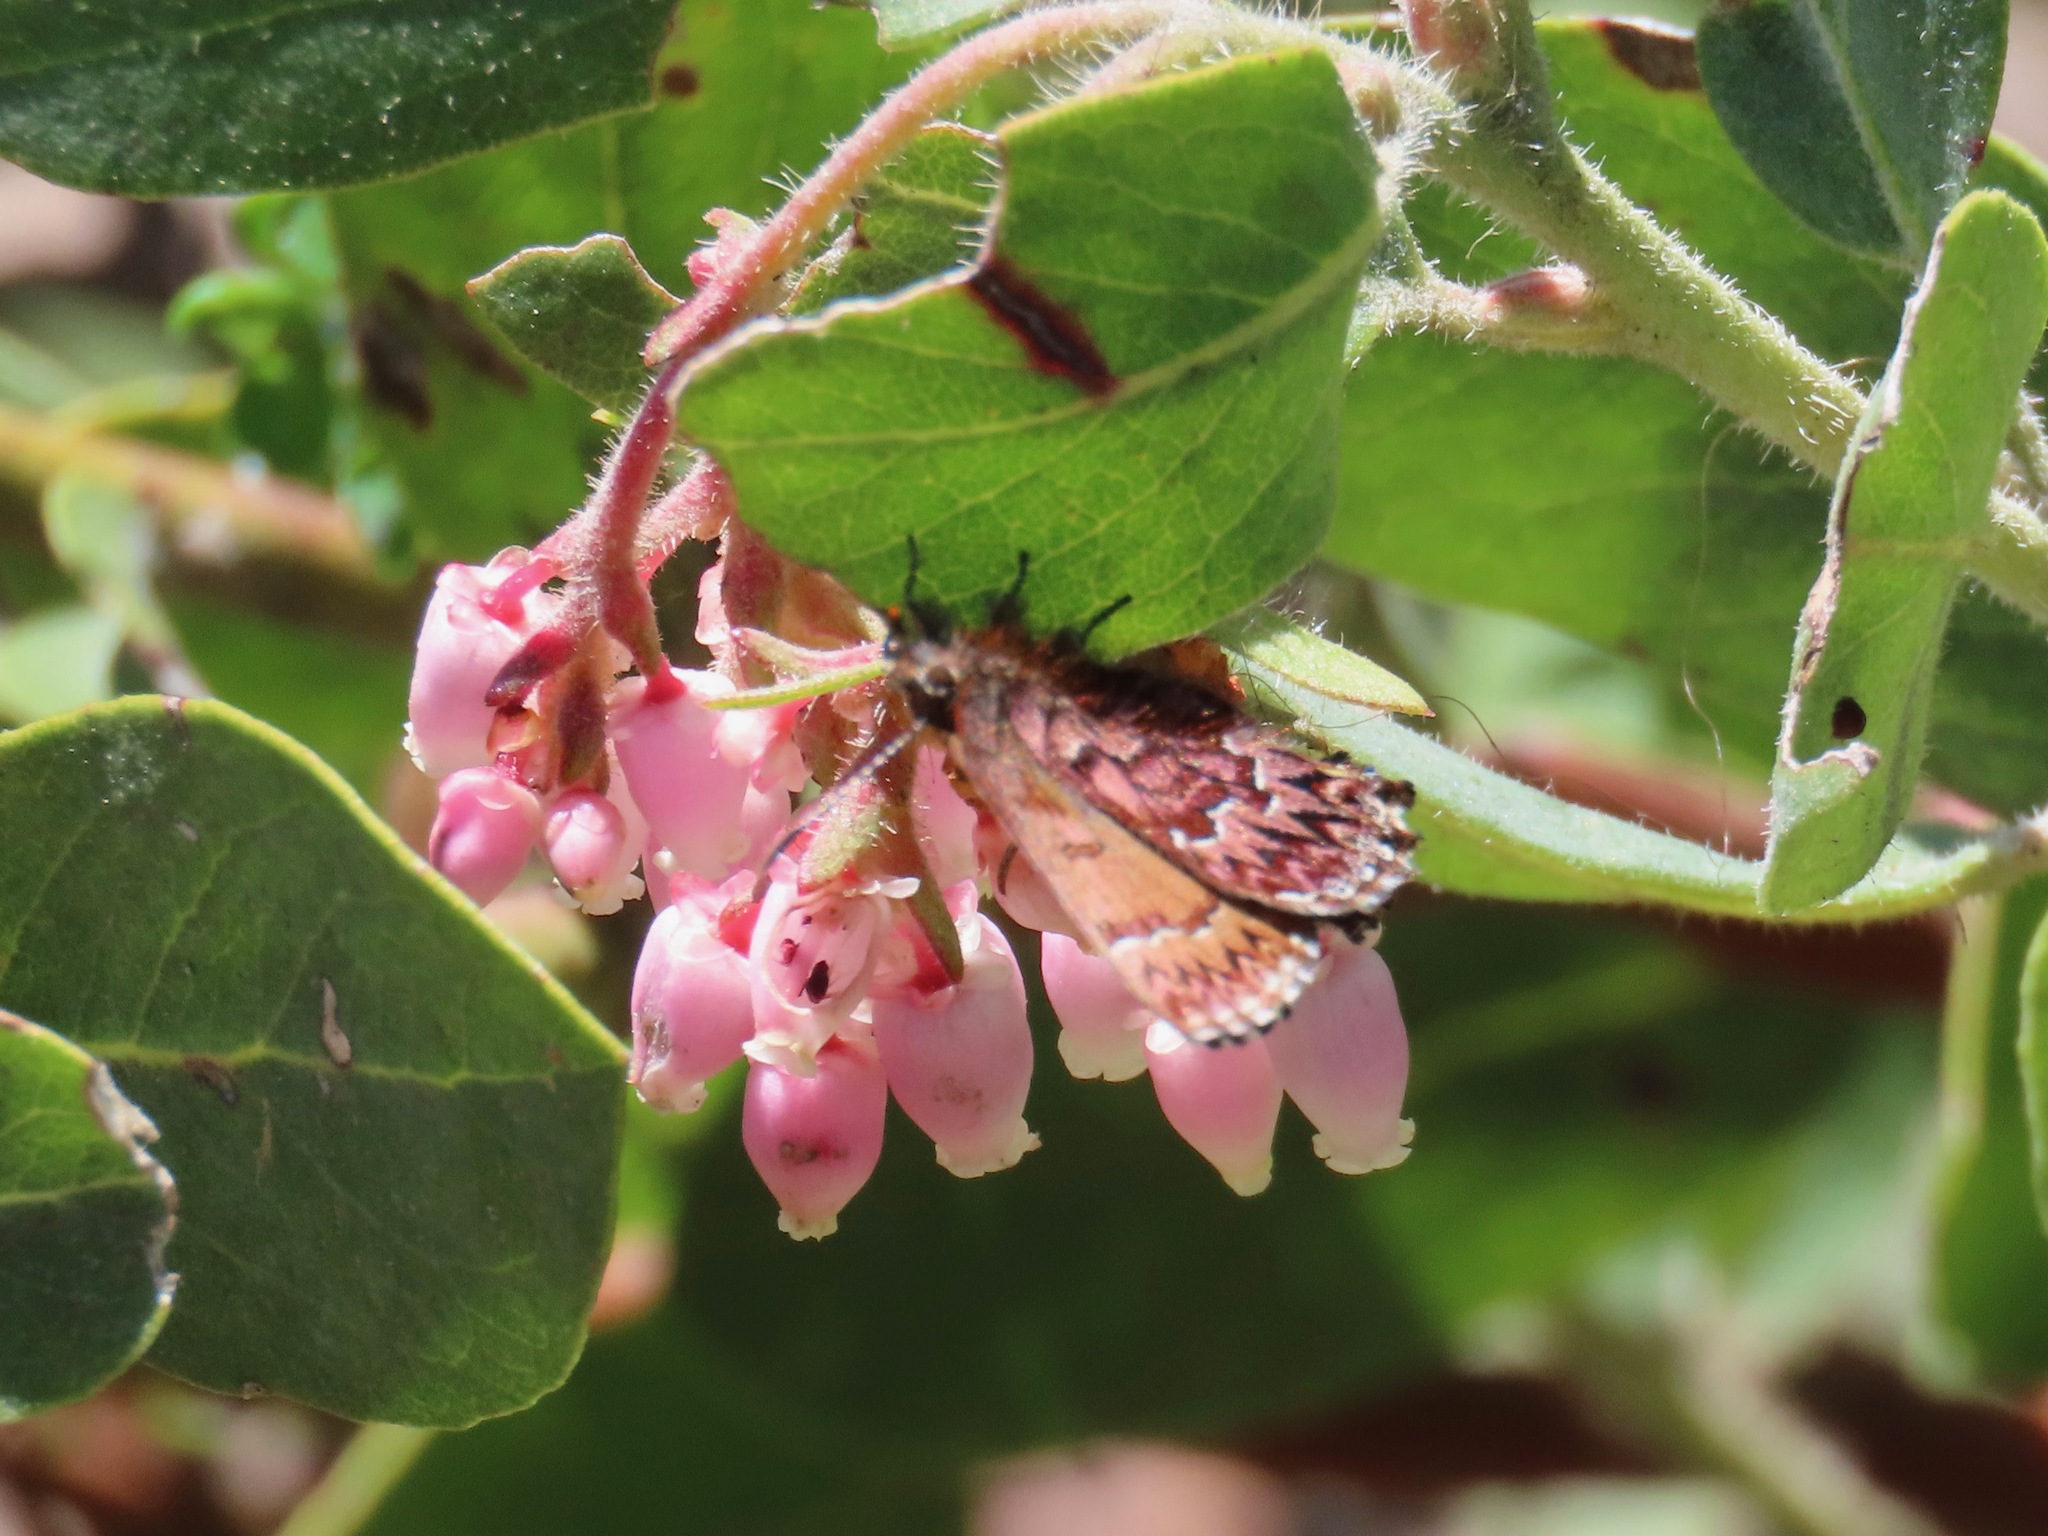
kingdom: Animalia
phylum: Arthropoda
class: Insecta
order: Lepidoptera
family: Lycaenidae
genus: Incisalia
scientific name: Incisalia eryphon
